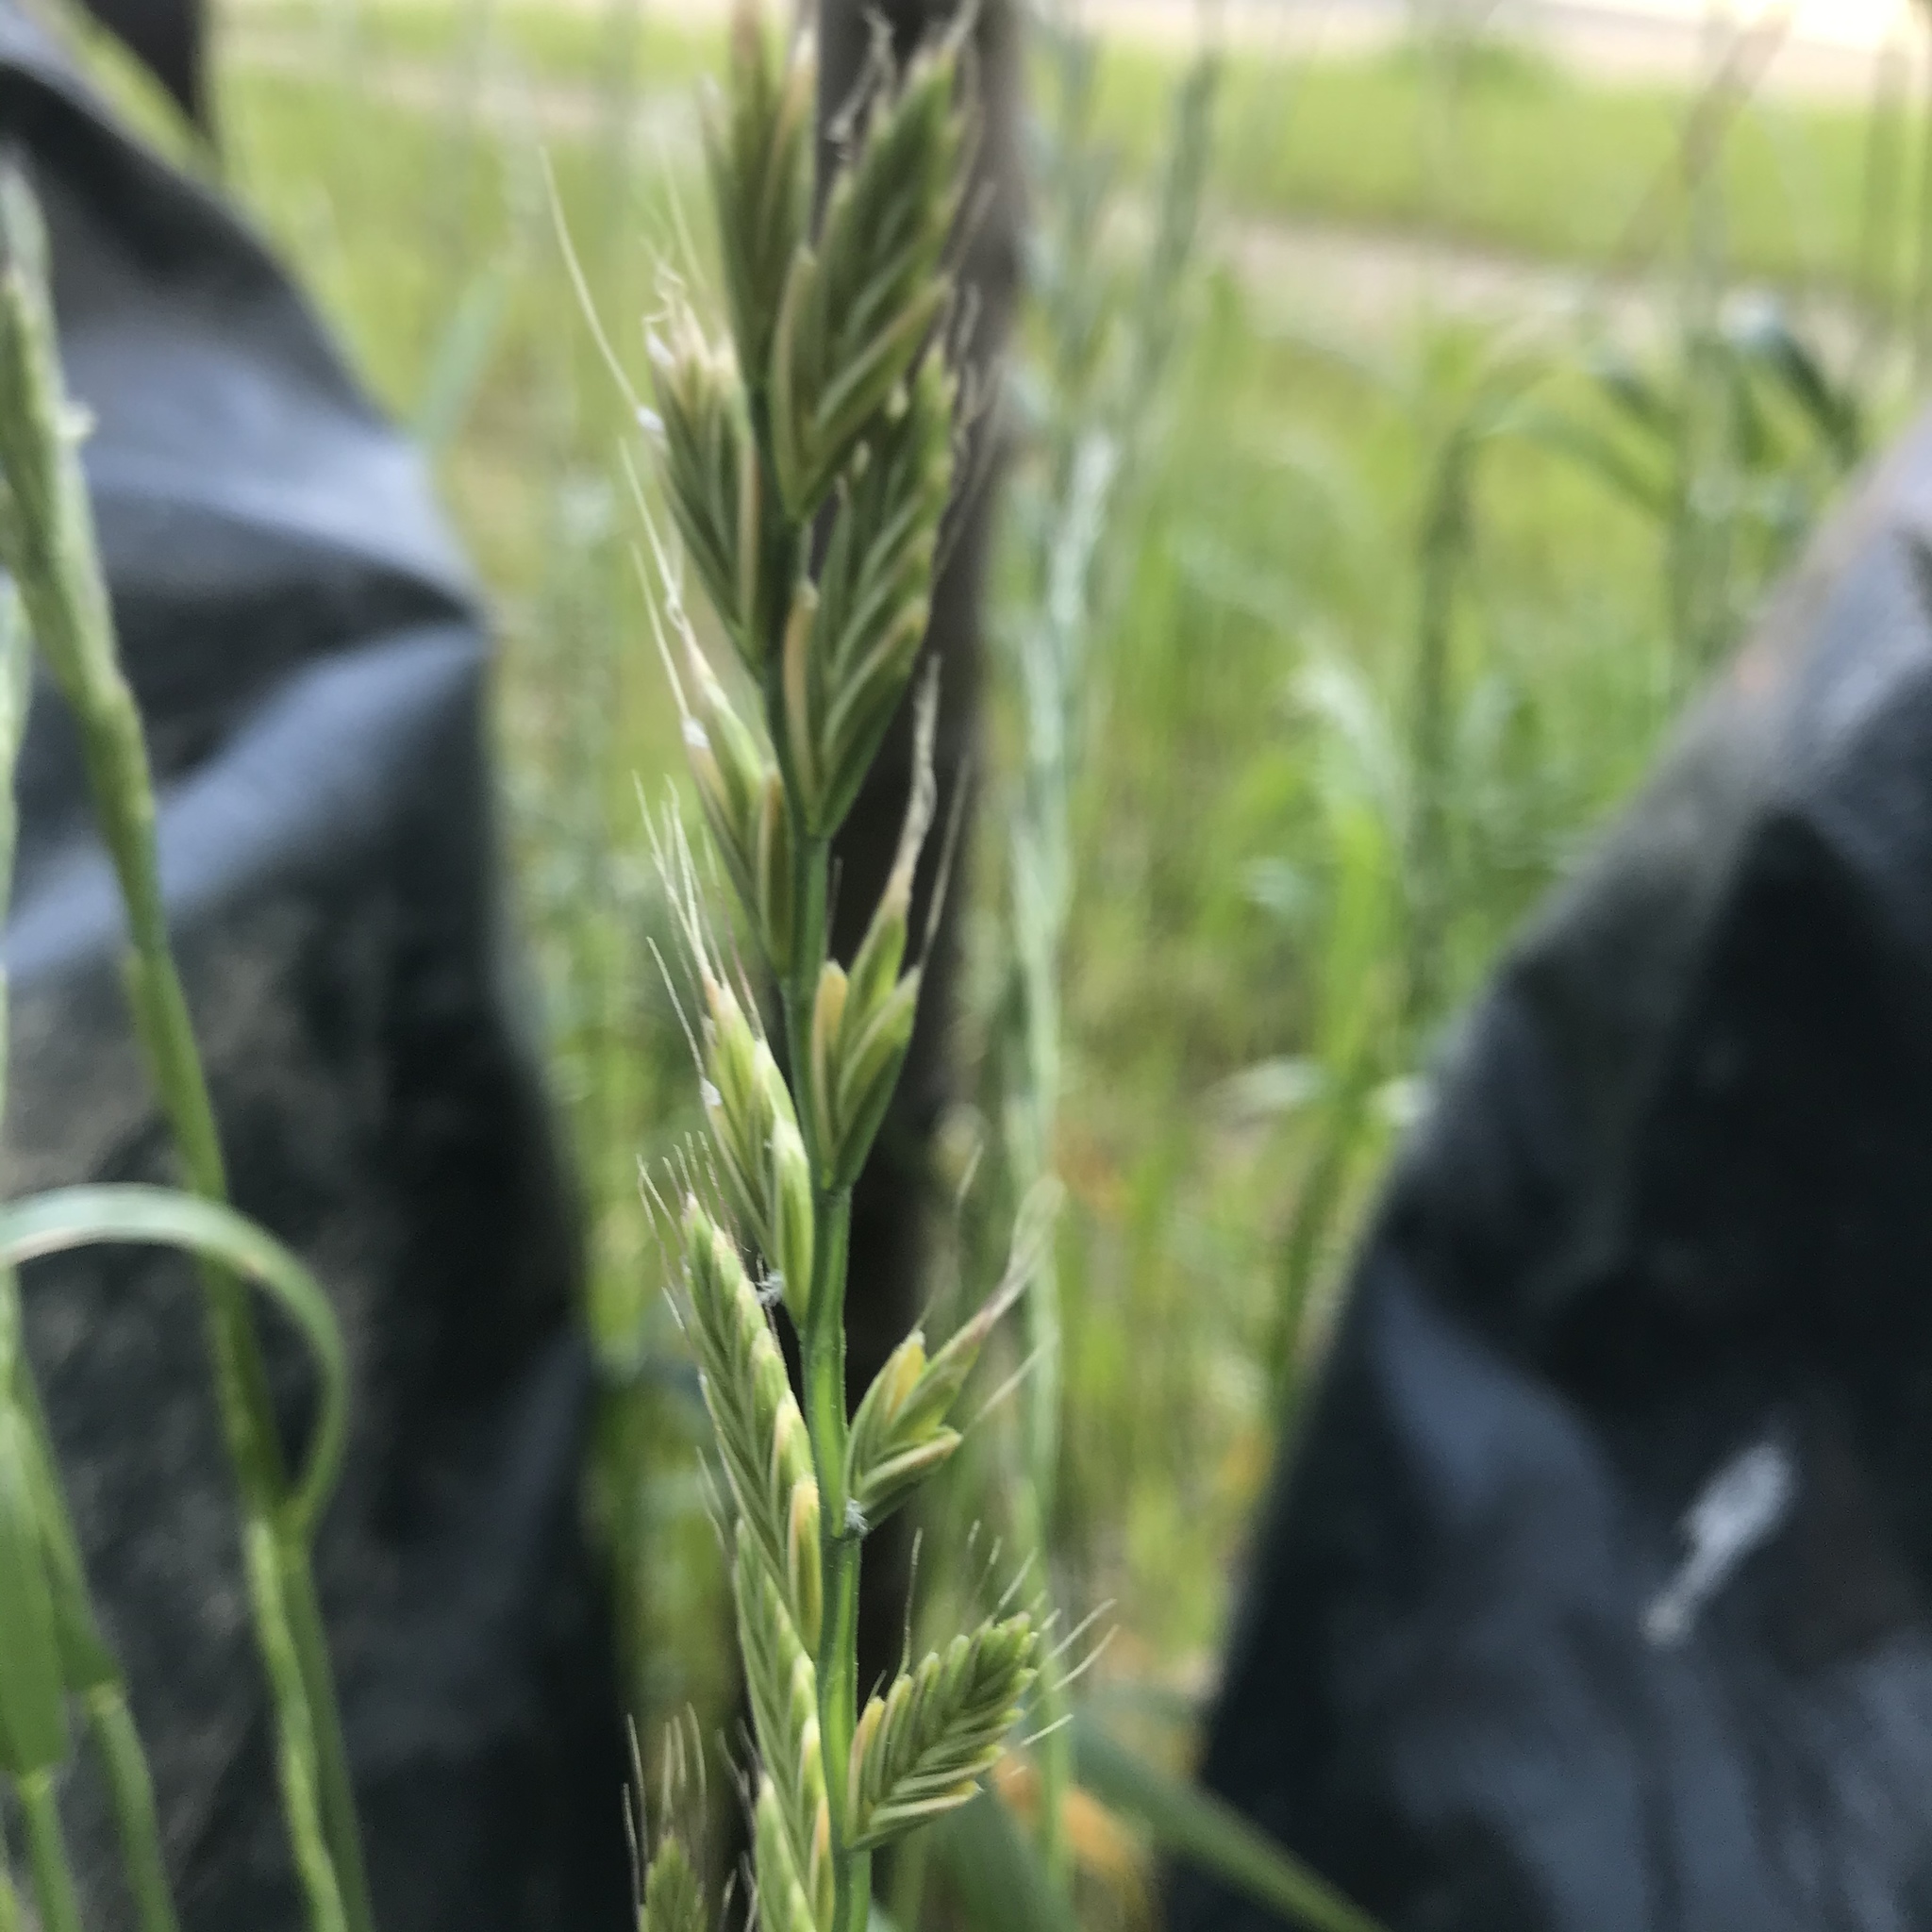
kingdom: Plantae
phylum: Tracheophyta
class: Liliopsida
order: Poales
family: Poaceae
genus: Lolium
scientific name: Lolium multiflorum
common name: Annual ryegrass
